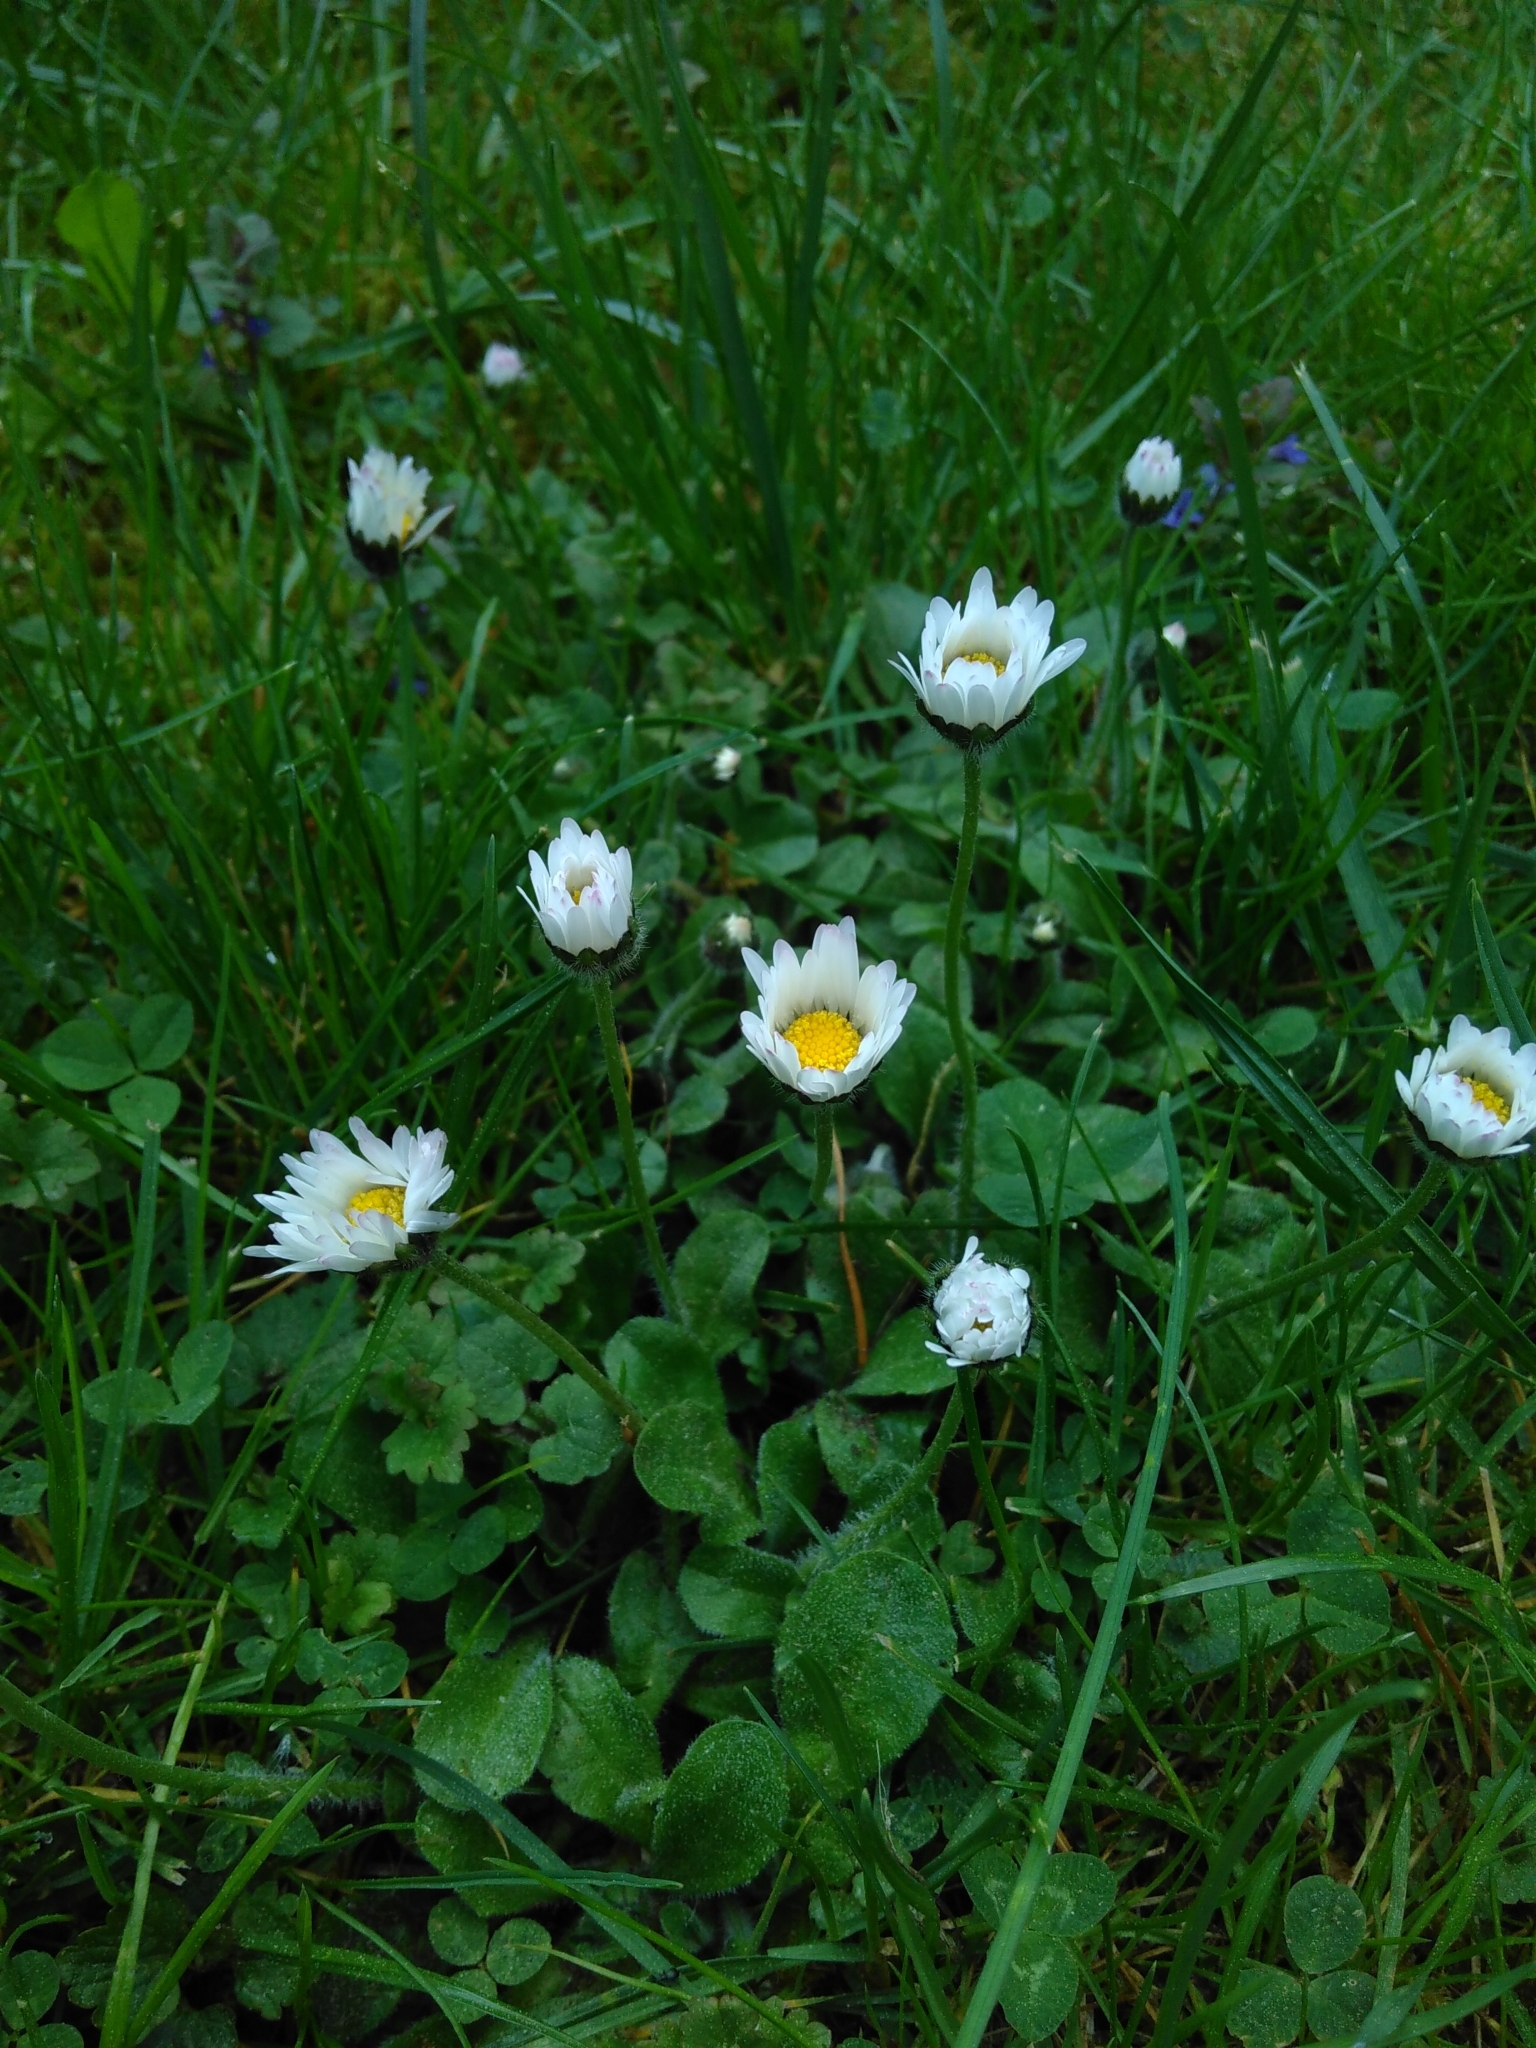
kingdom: Plantae
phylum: Tracheophyta
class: Magnoliopsida
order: Asterales
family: Asteraceae
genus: Bellis
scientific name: Bellis perennis
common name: Lawndaisy
